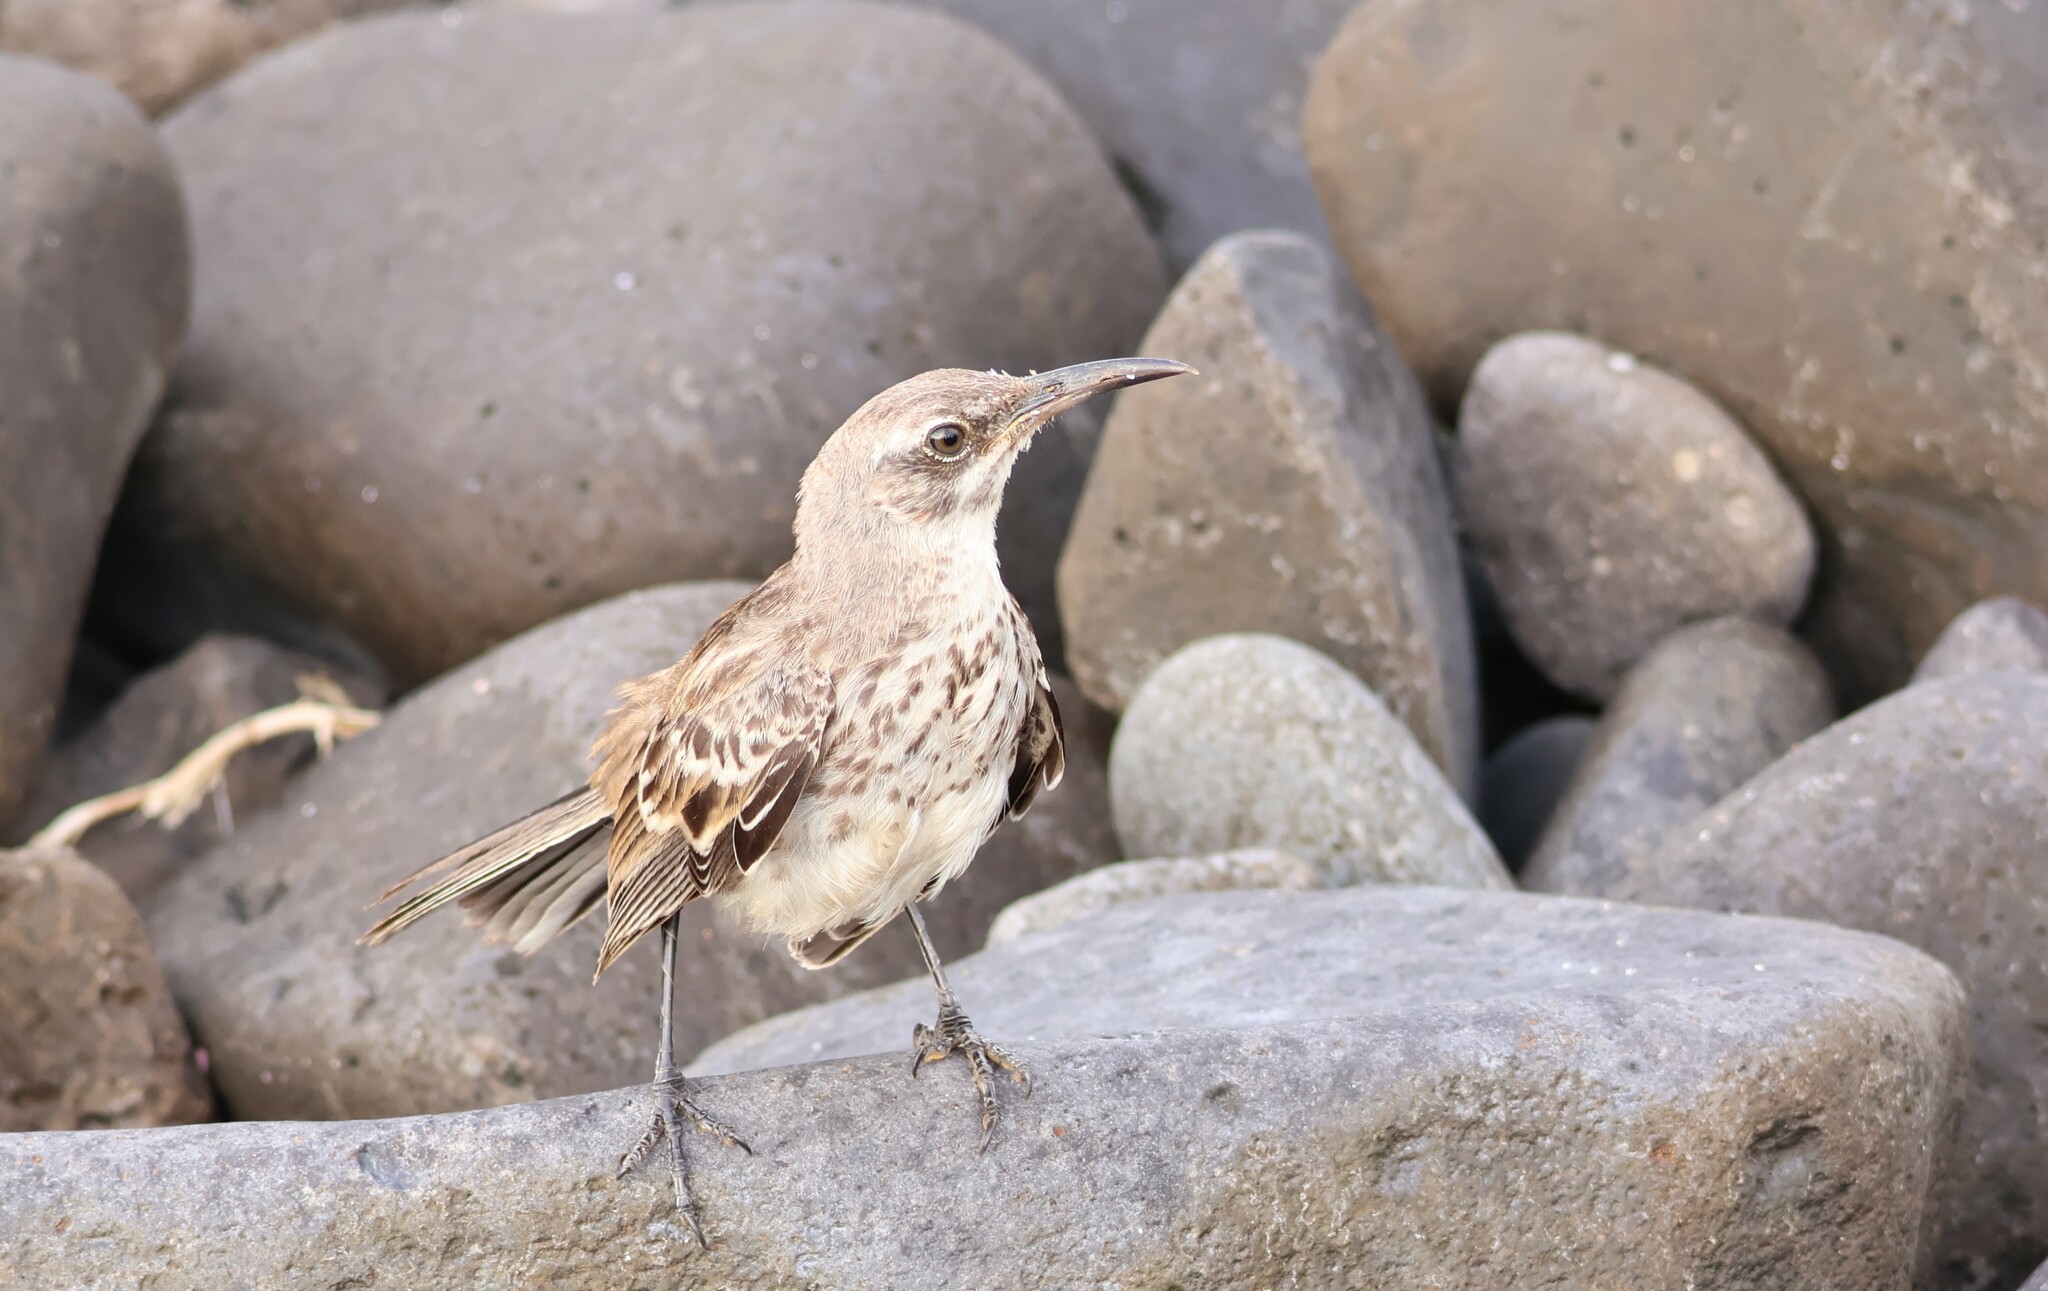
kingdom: Animalia
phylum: Chordata
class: Aves
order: Passeriformes
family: Mimidae
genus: Mimus
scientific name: Mimus macdonaldi
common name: Espanola mockingbird
